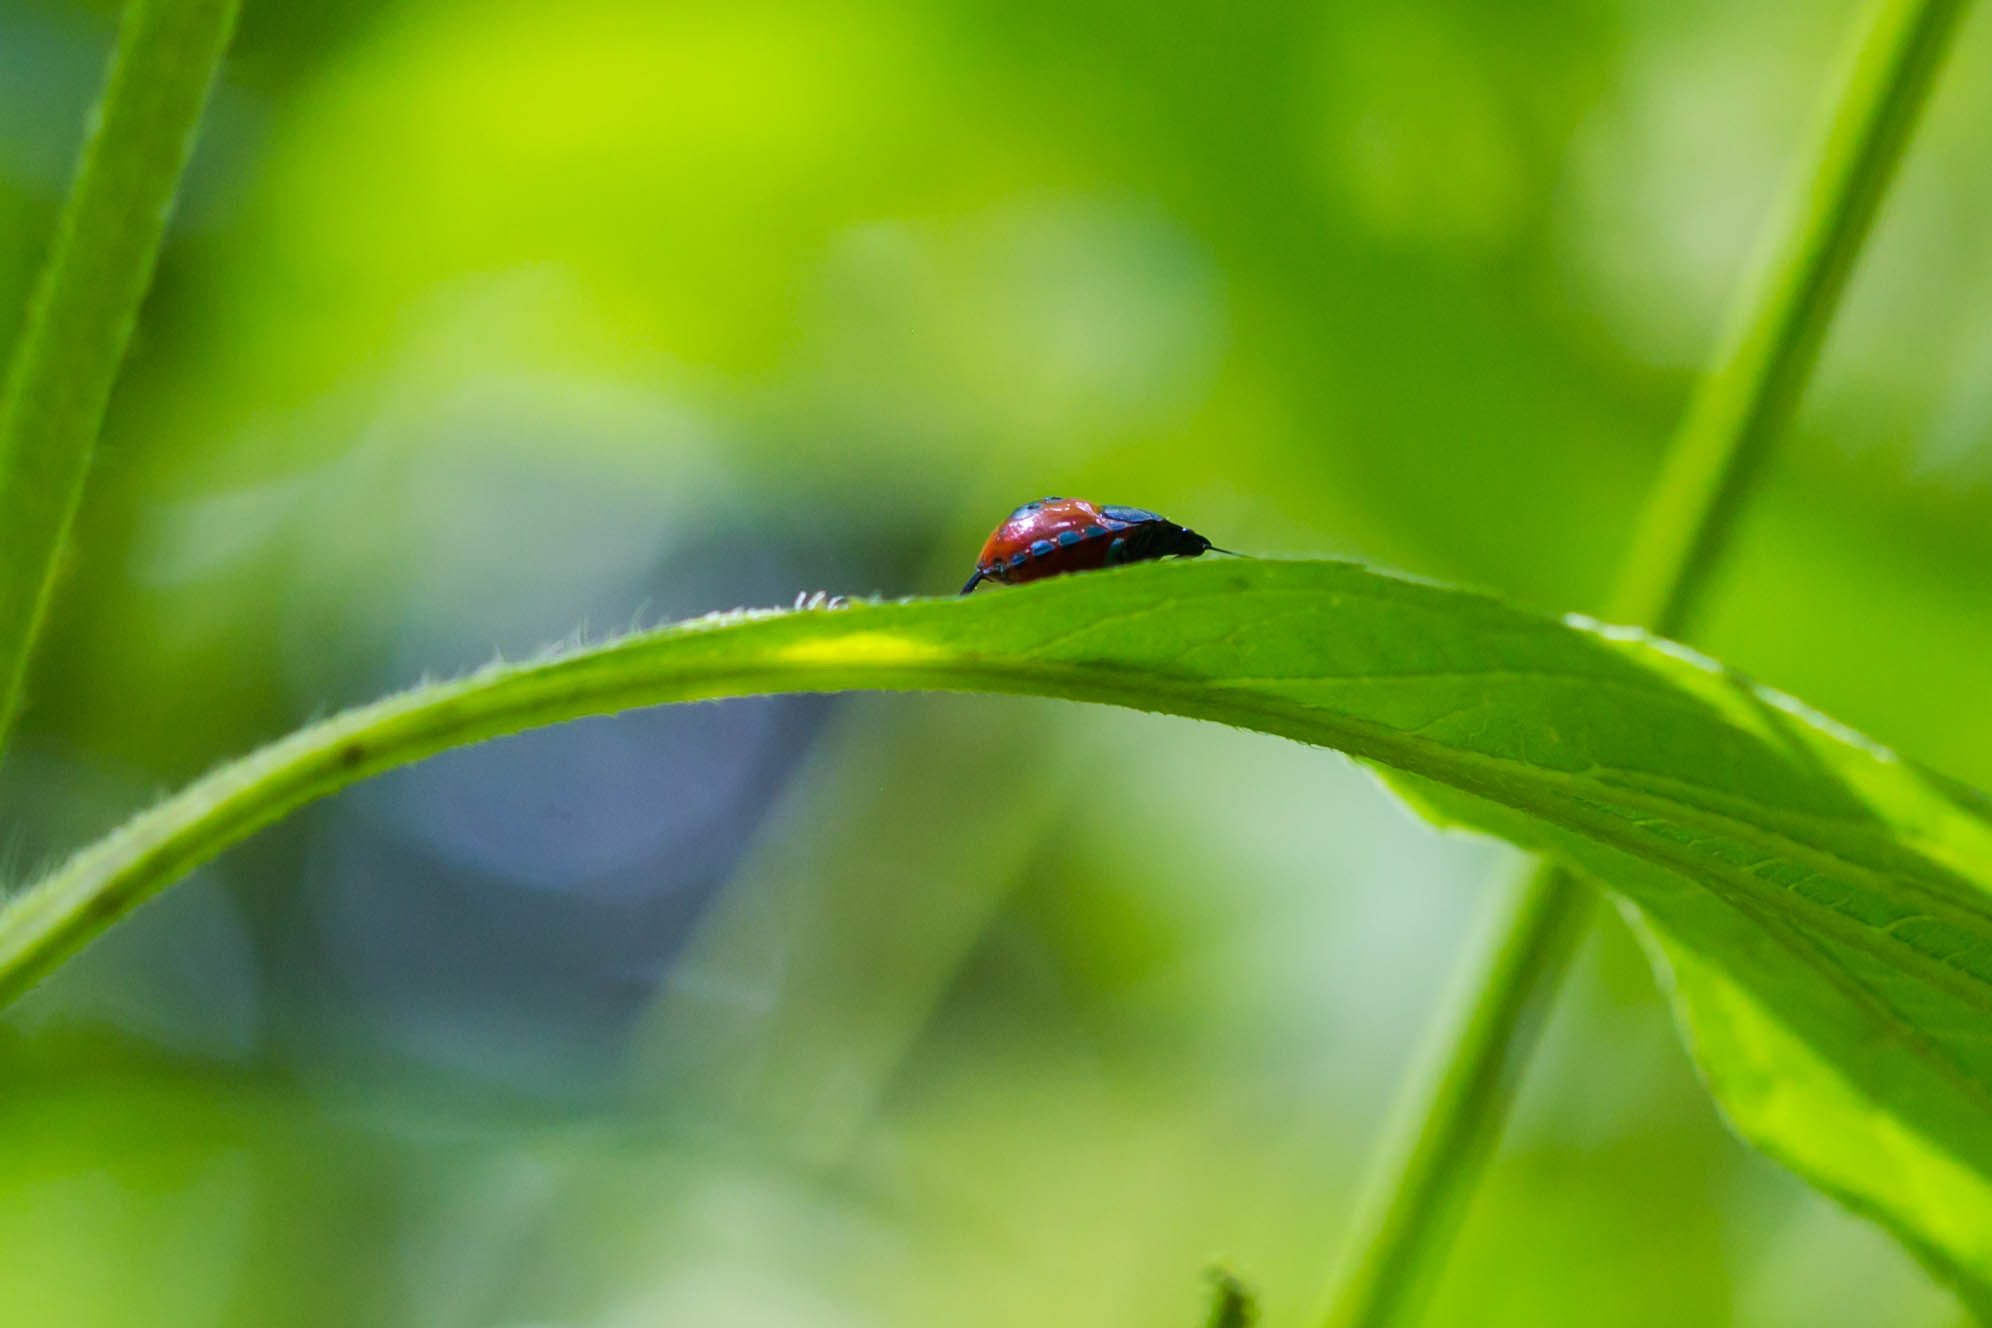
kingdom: Animalia
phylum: Arthropoda
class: Insecta
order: Hemiptera
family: Pentatomidae
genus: Euthyrhynchus
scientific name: Euthyrhynchus floridanus
